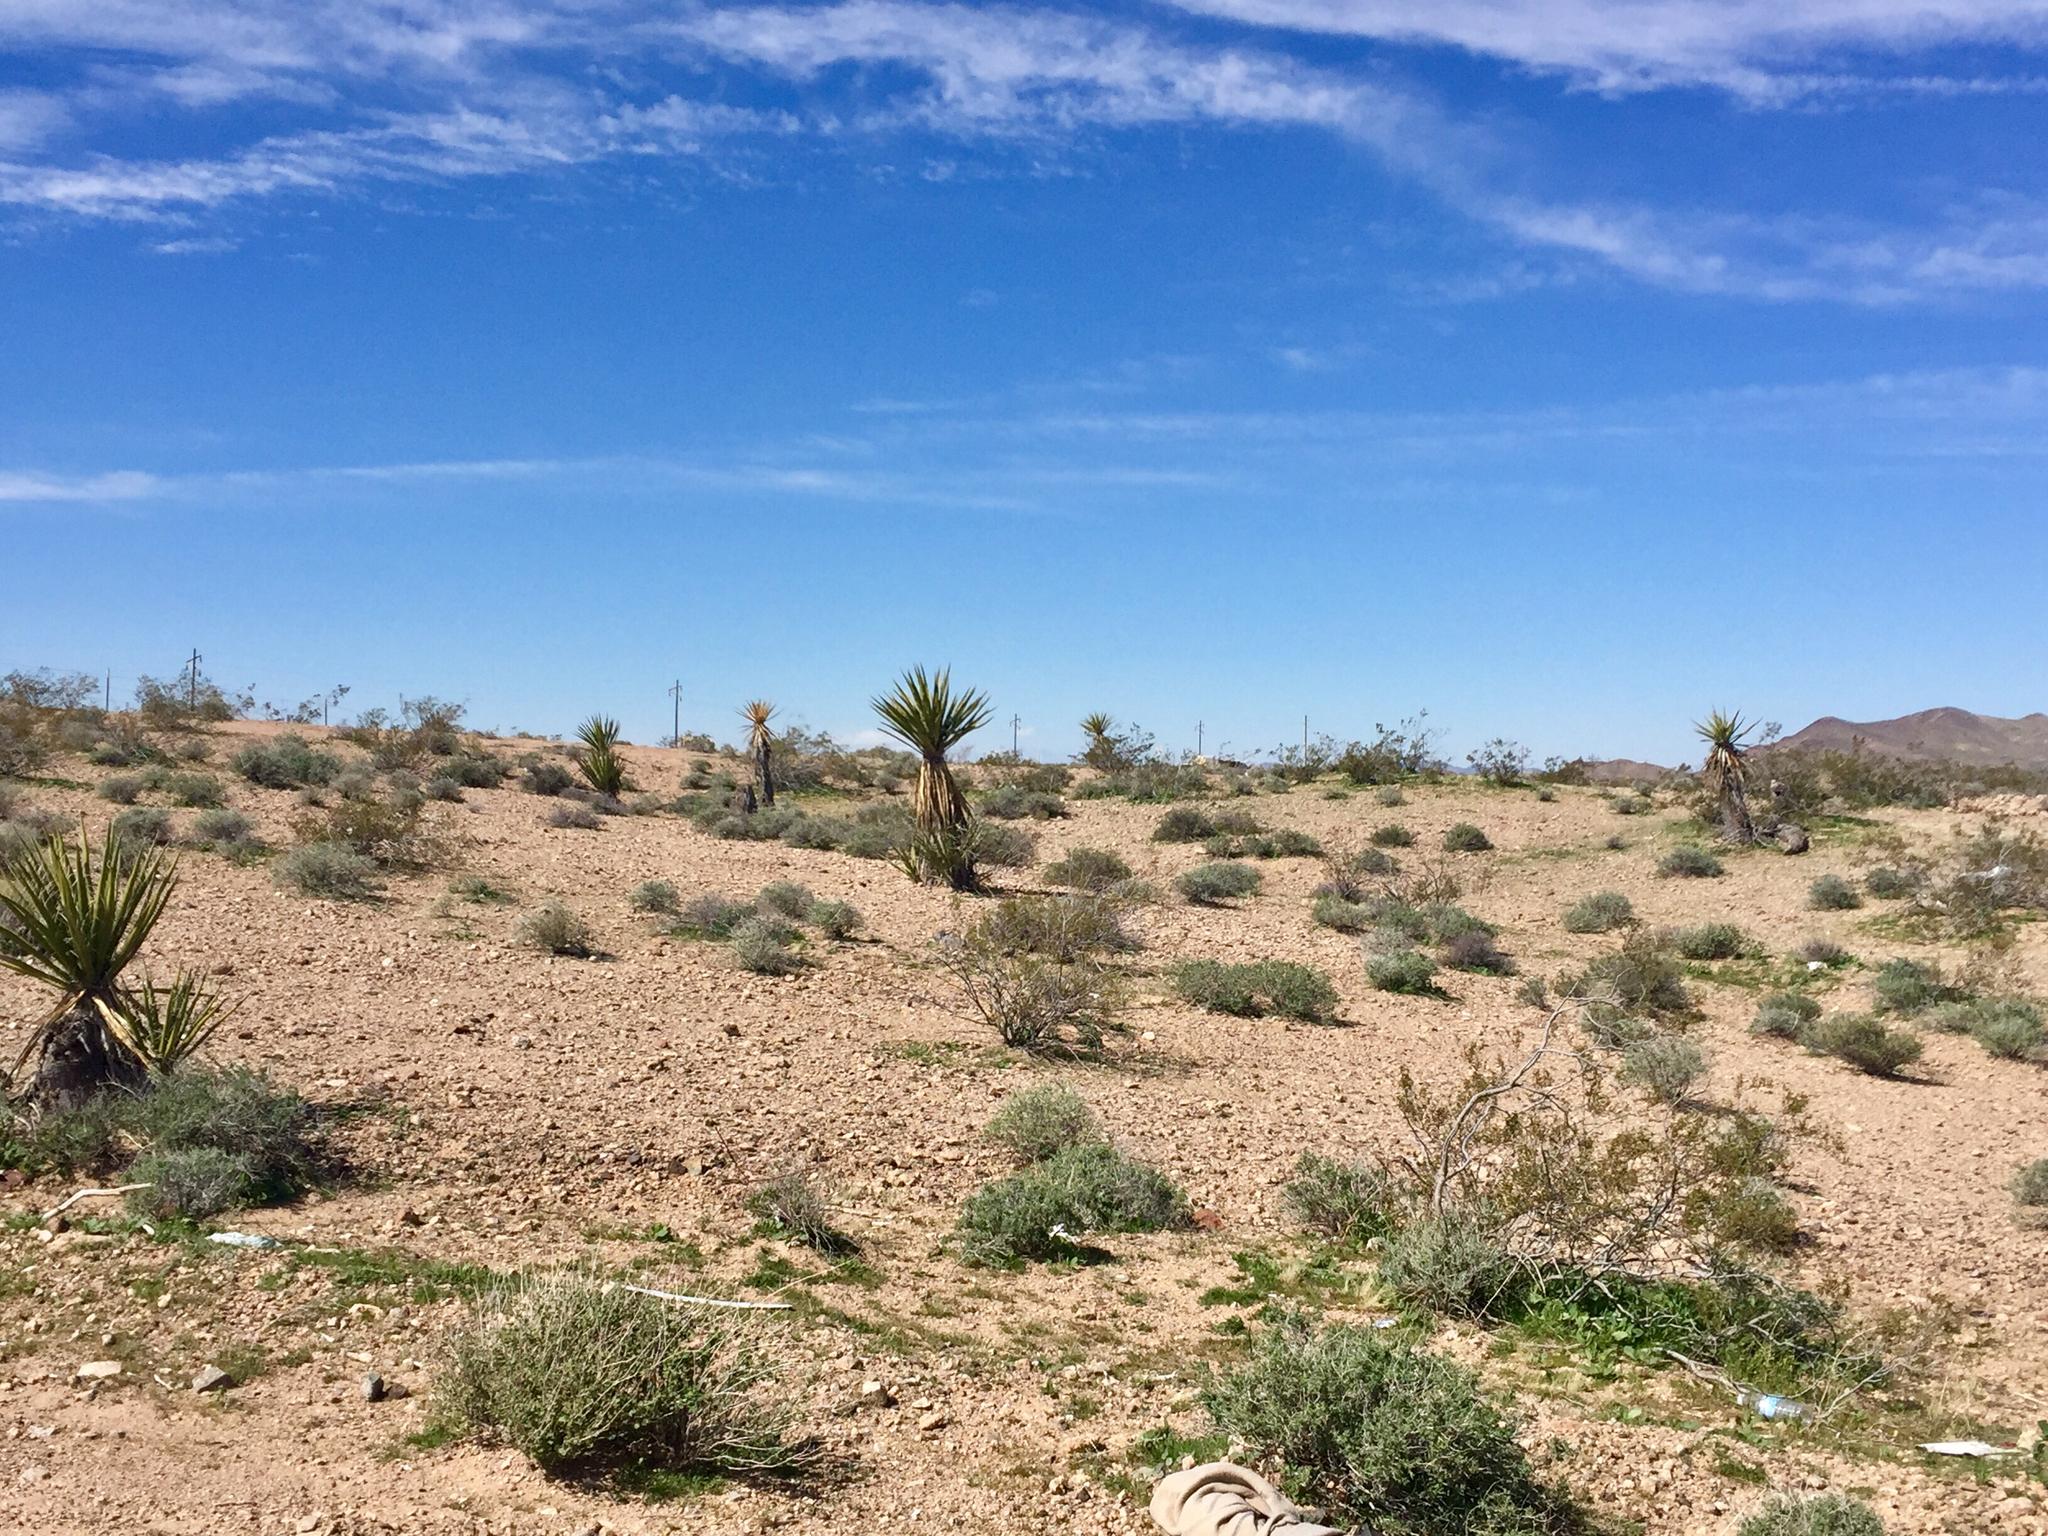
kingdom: Plantae
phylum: Tracheophyta
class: Liliopsida
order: Asparagales
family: Asparagaceae
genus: Yucca
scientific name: Yucca schidigera
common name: Mojave yucca
